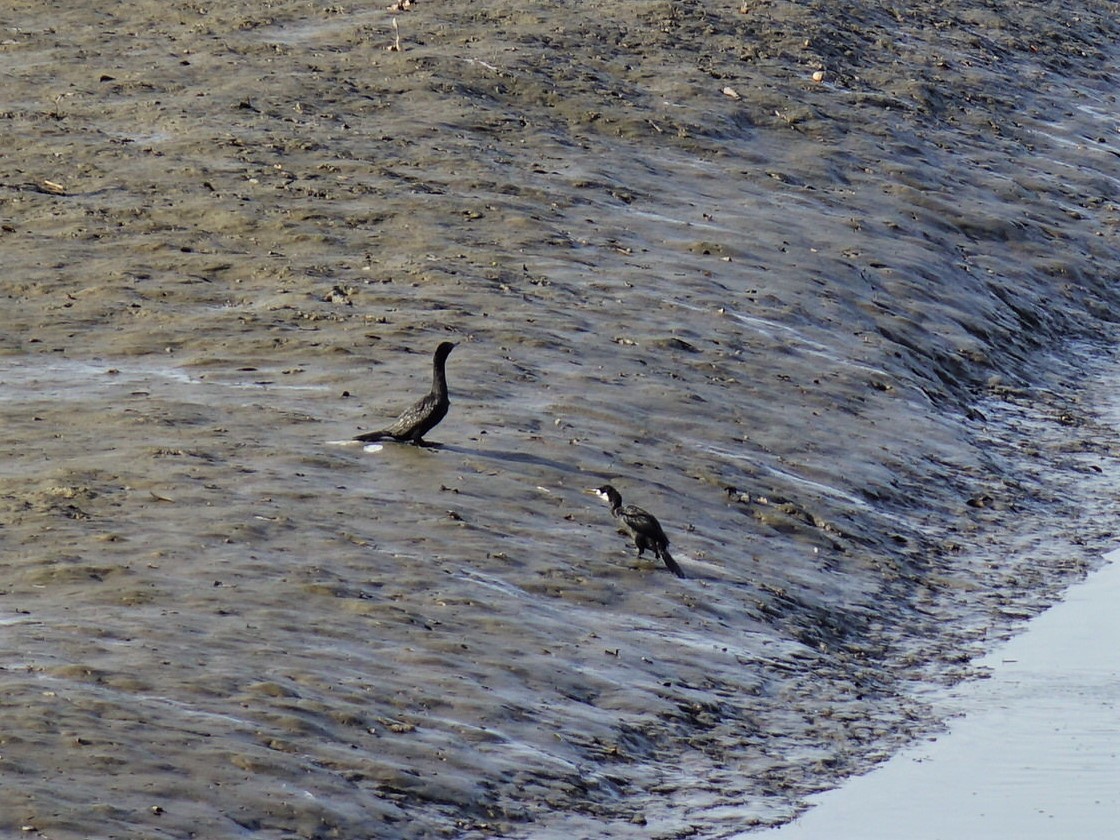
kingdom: Animalia
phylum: Chordata
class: Aves
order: Suliformes
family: Phalacrocoracidae
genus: Microcarbo
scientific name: Microcarbo melanoleucos
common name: Little pied cormorant
